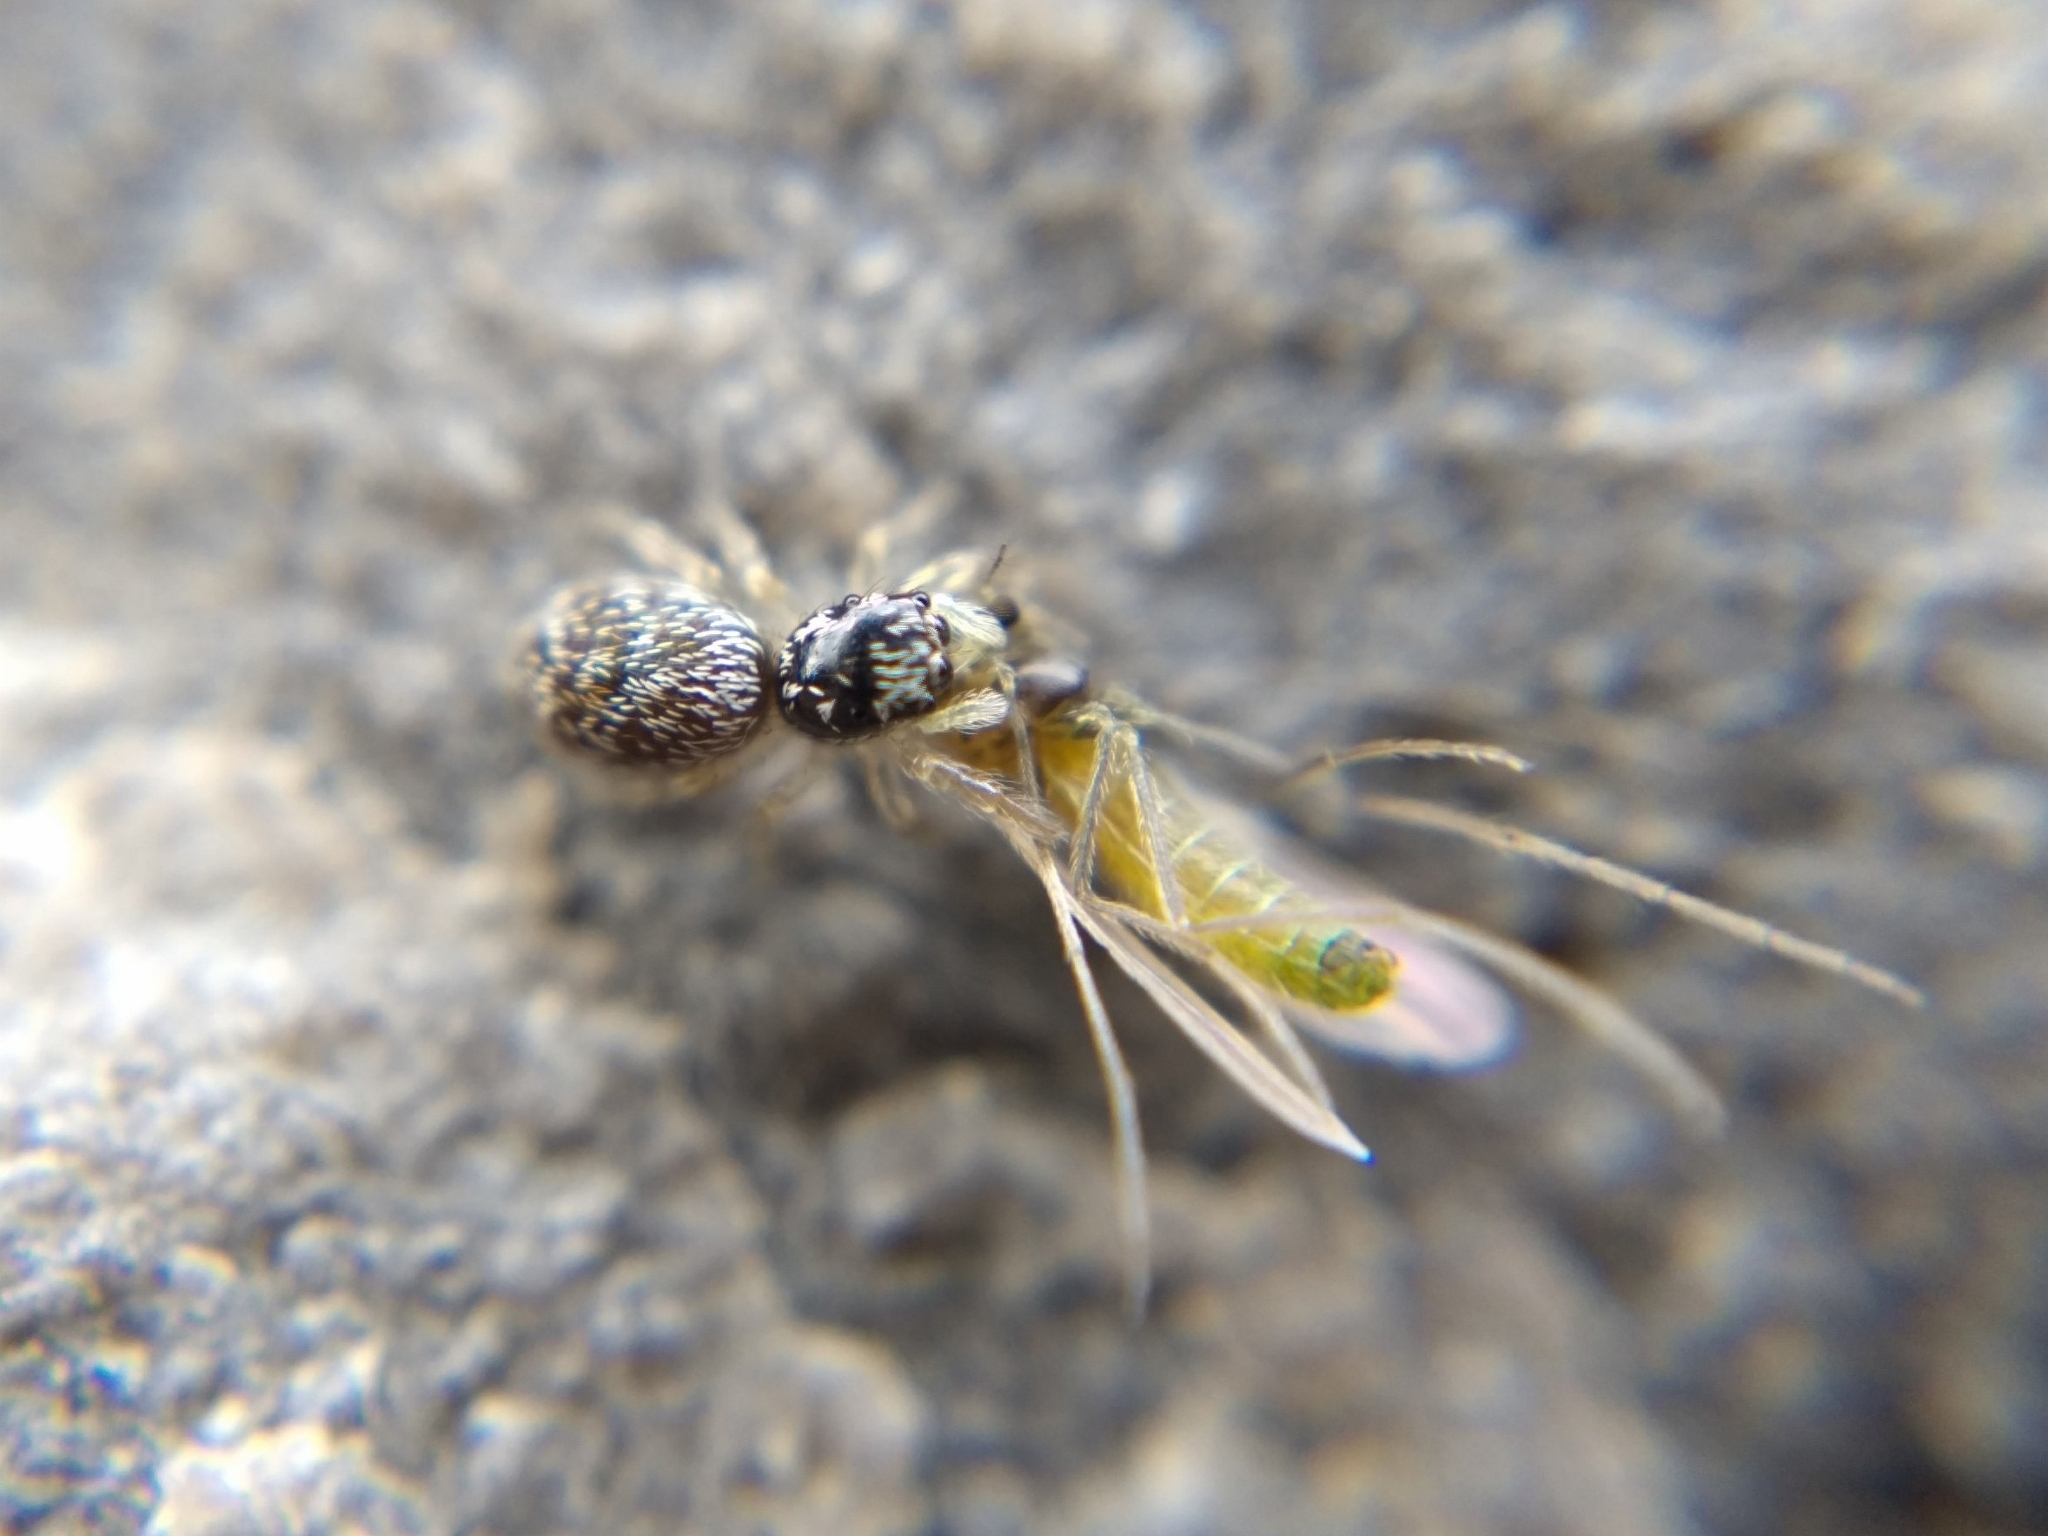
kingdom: Animalia
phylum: Arthropoda
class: Arachnida
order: Araneae
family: Salticidae
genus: Salticus
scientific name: Salticus scenicus
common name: Zebra jumper
